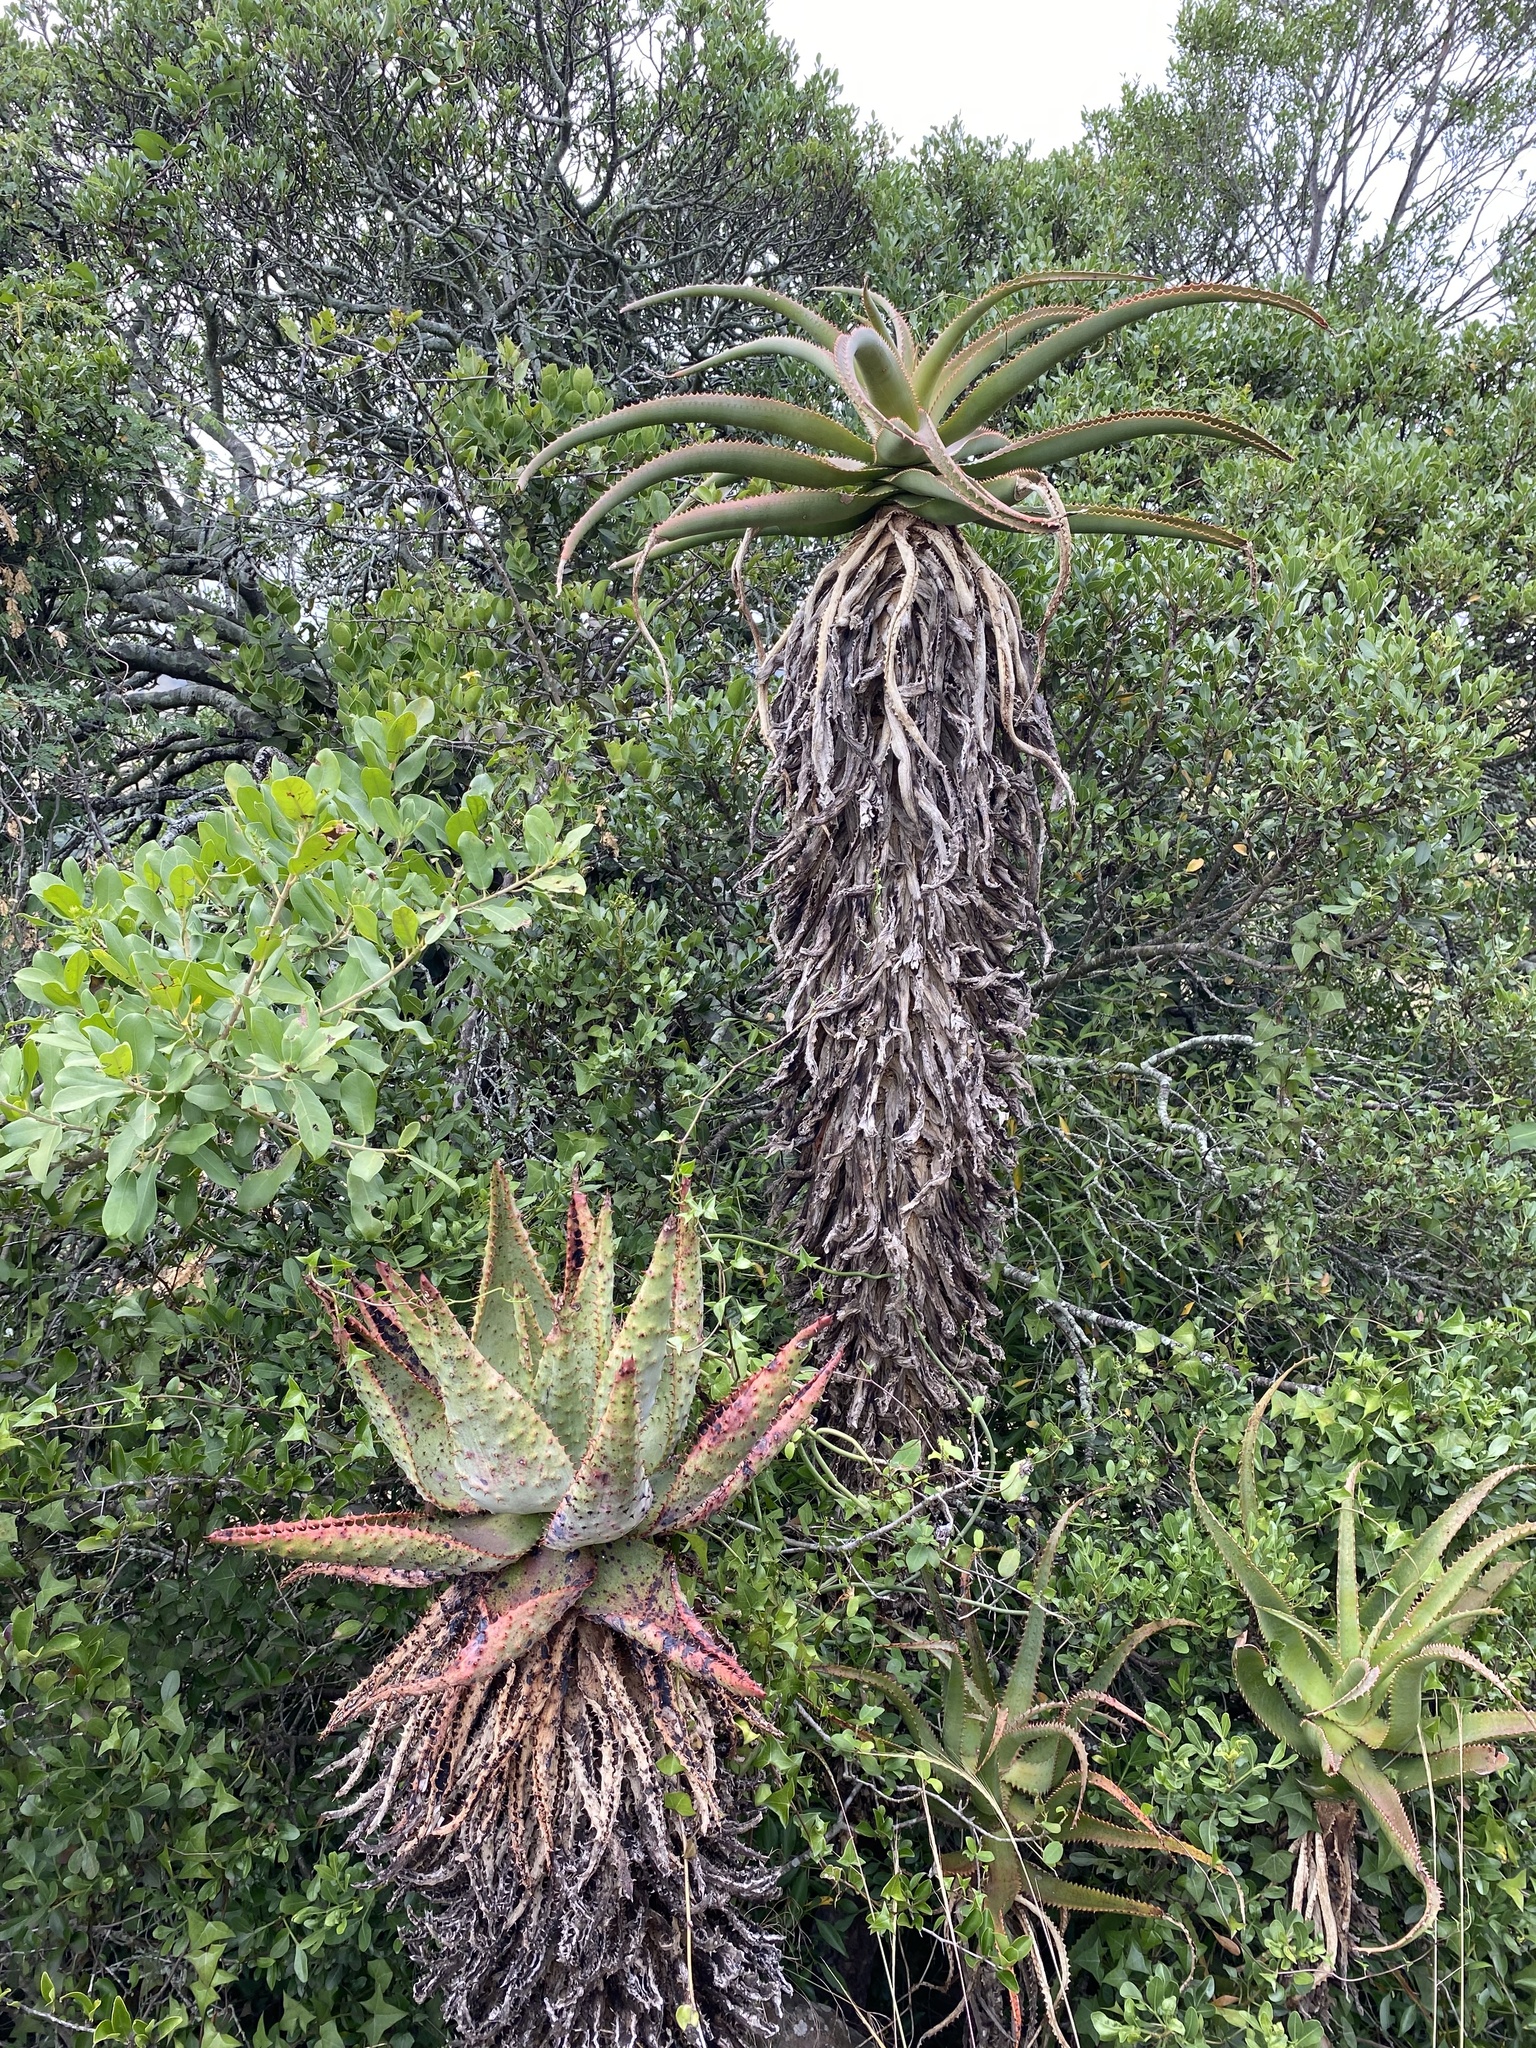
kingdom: Plantae
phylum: Tracheophyta
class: Liliopsida
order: Asparagales
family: Asphodelaceae
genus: Aloe
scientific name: Aloe rupestris
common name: Bottle-brush aloe
